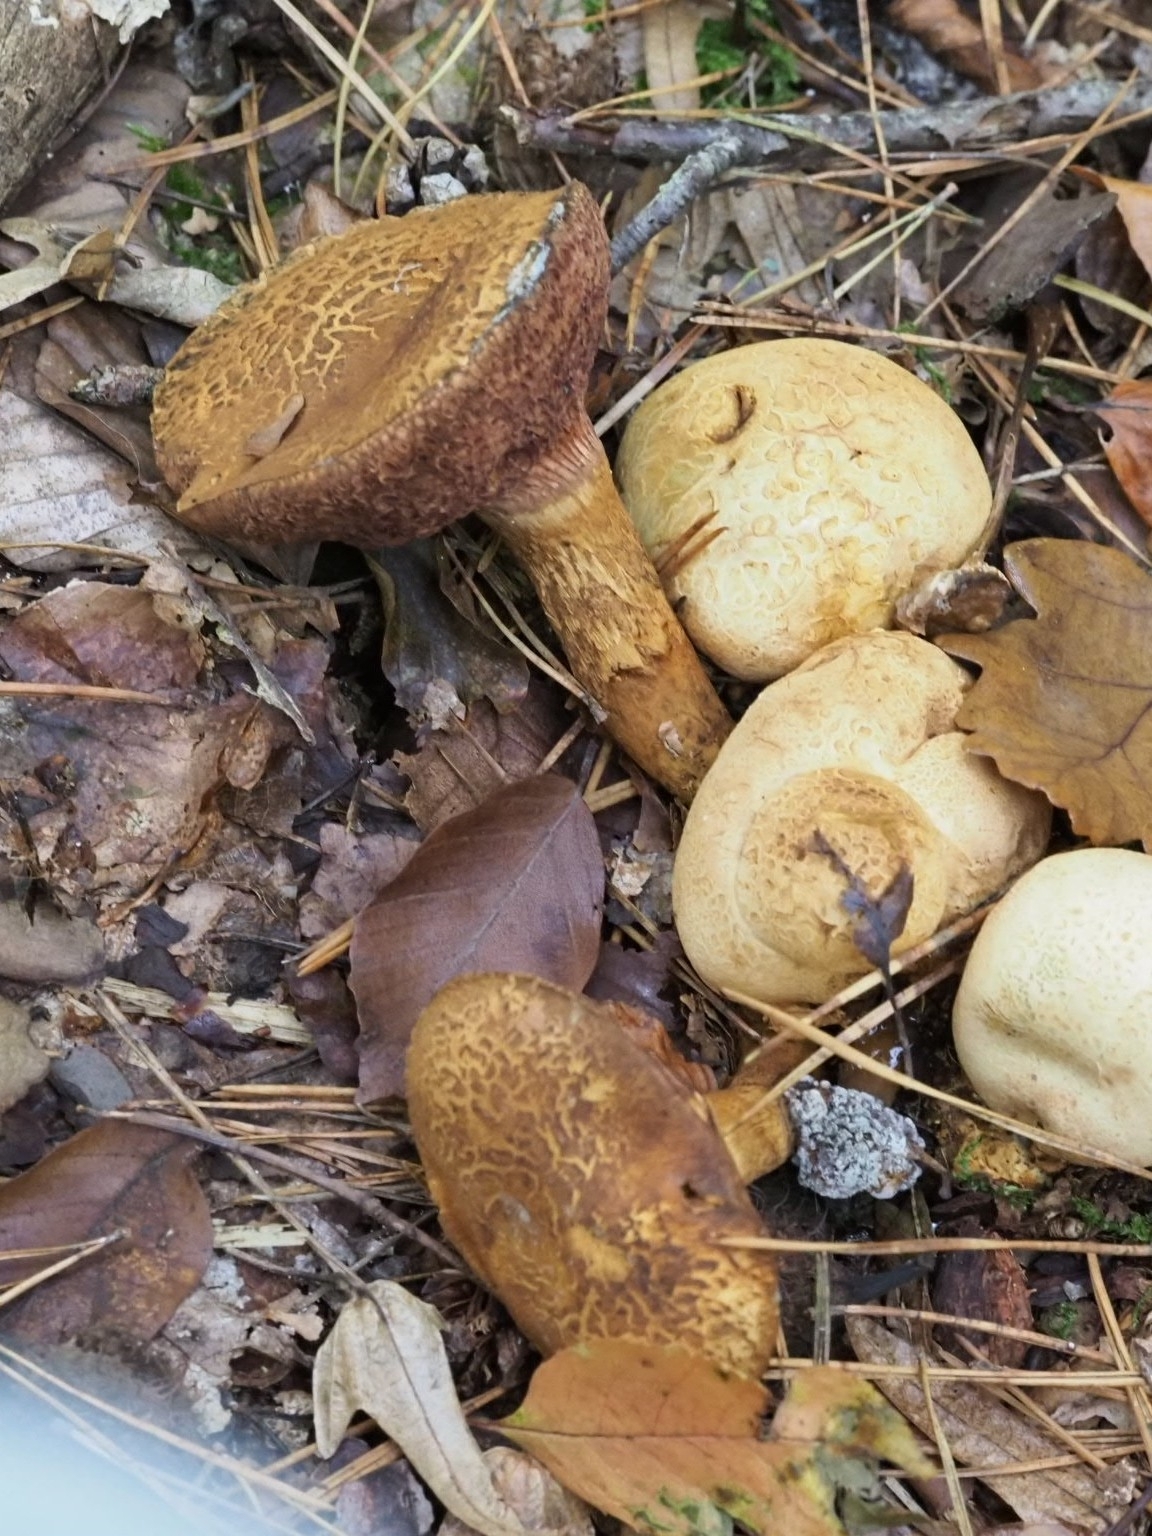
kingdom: Fungi
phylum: Basidiomycota
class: Agaricomycetes
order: Boletales
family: Boletaceae
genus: Pseudoboletus
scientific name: Pseudoboletus parasiticus
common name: Parasitic bolete
